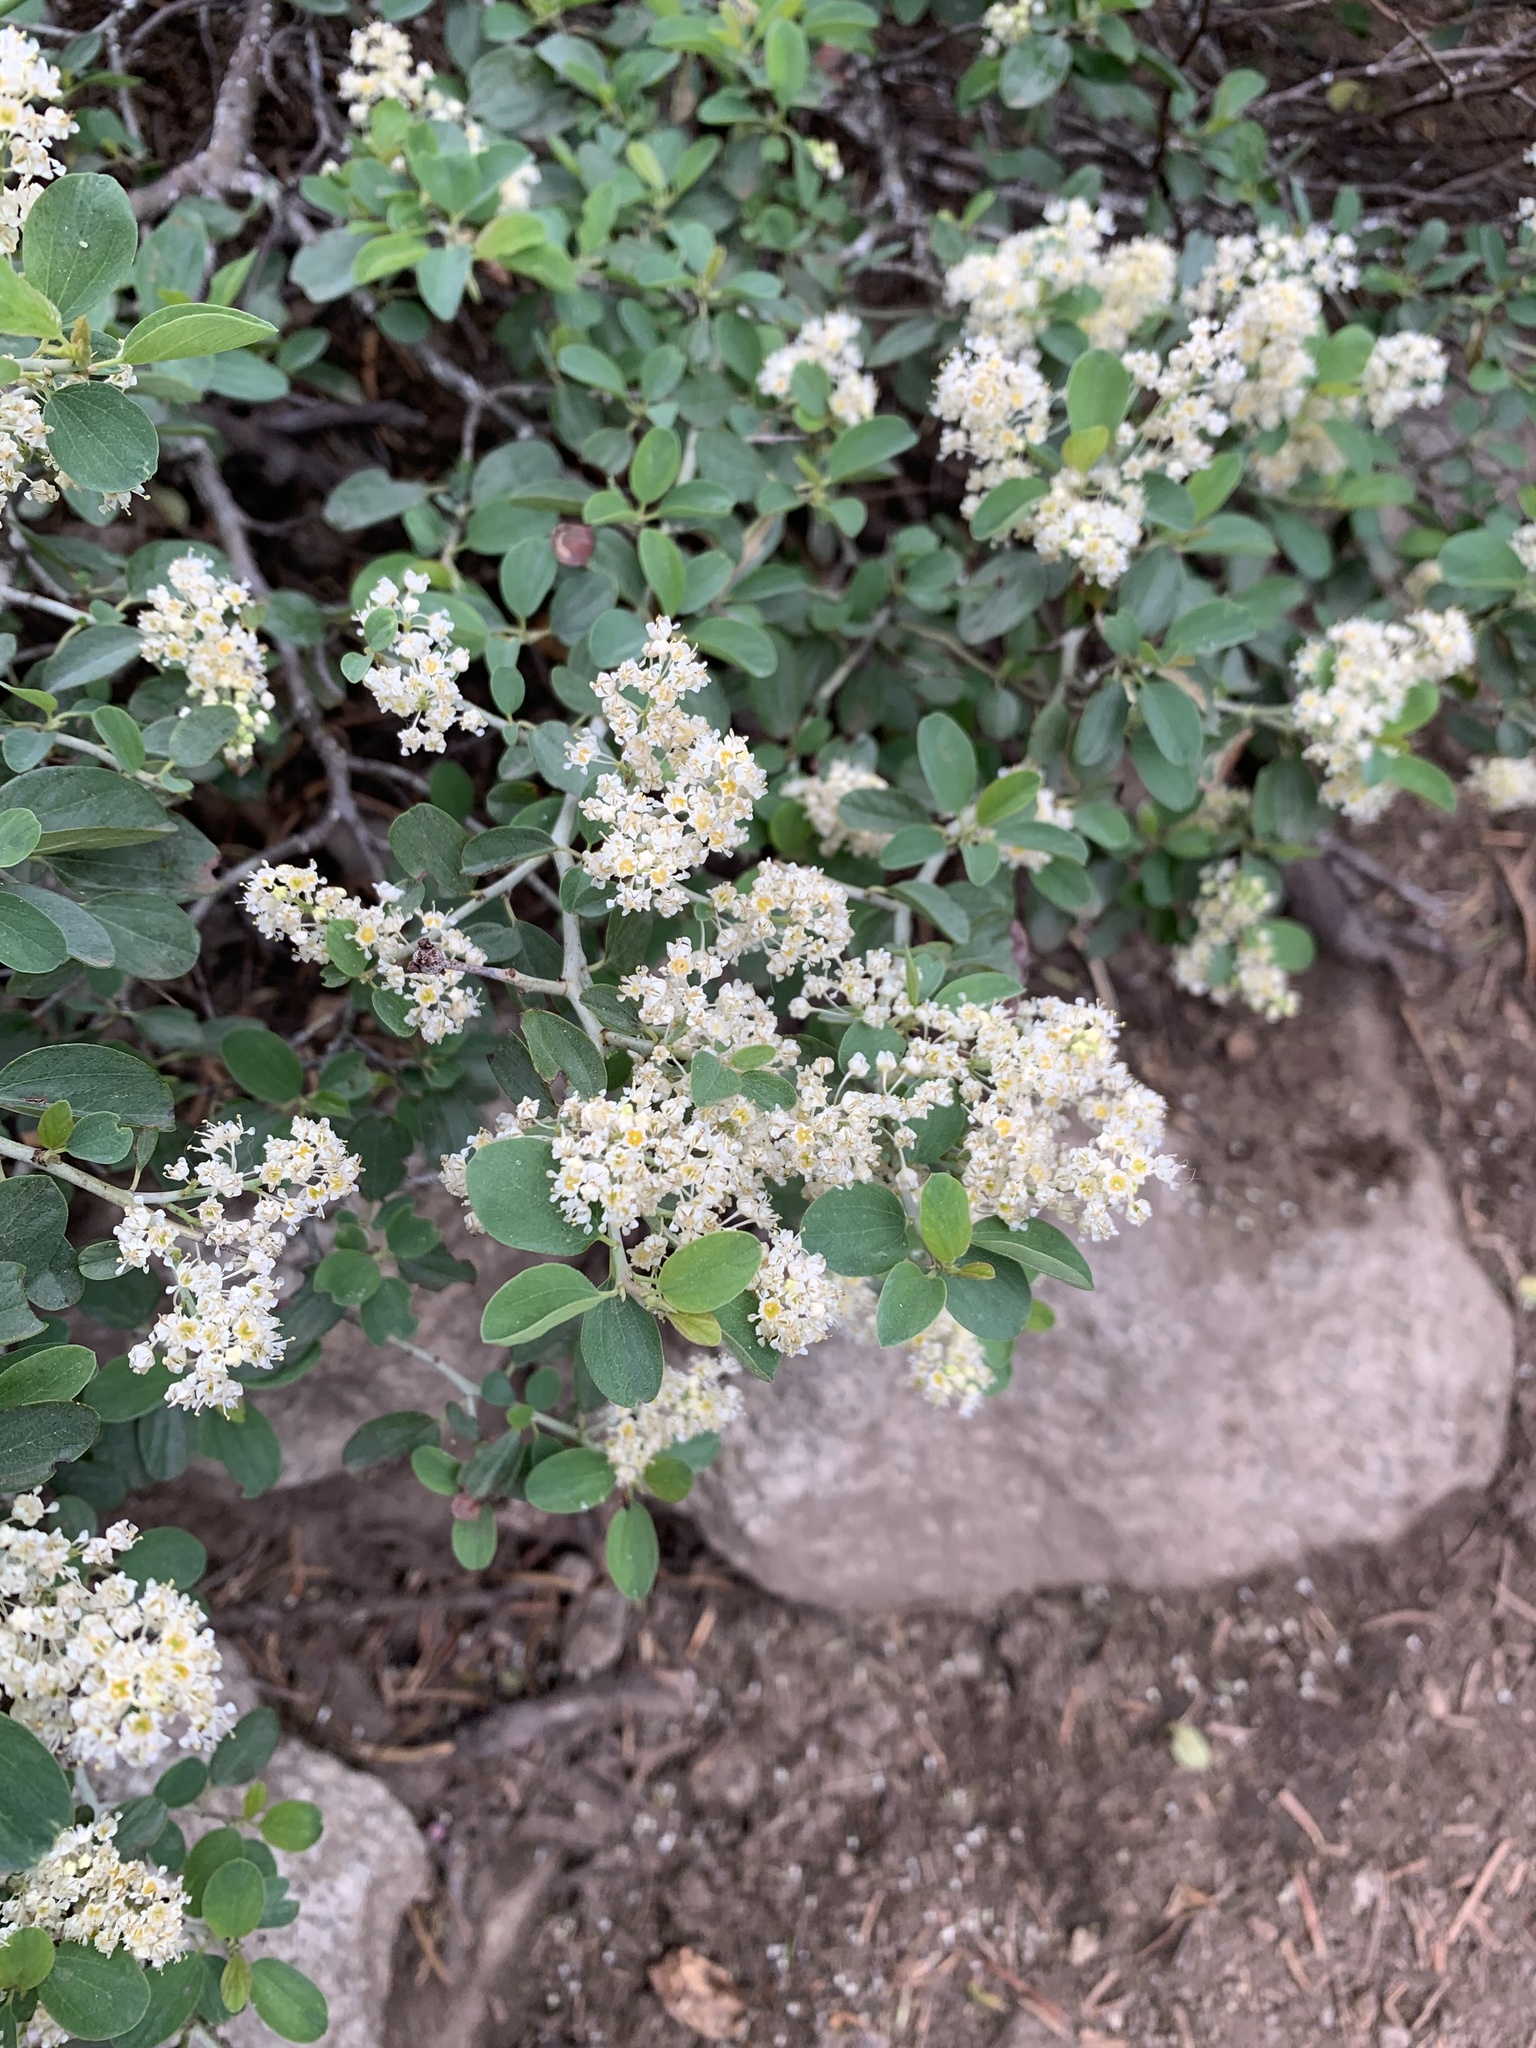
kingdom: Plantae
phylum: Tracheophyta
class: Magnoliopsida
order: Rosales
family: Rhamnaceae
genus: Ceanothus
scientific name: Ceanothus cordulatus
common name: Mountain whitethorn
